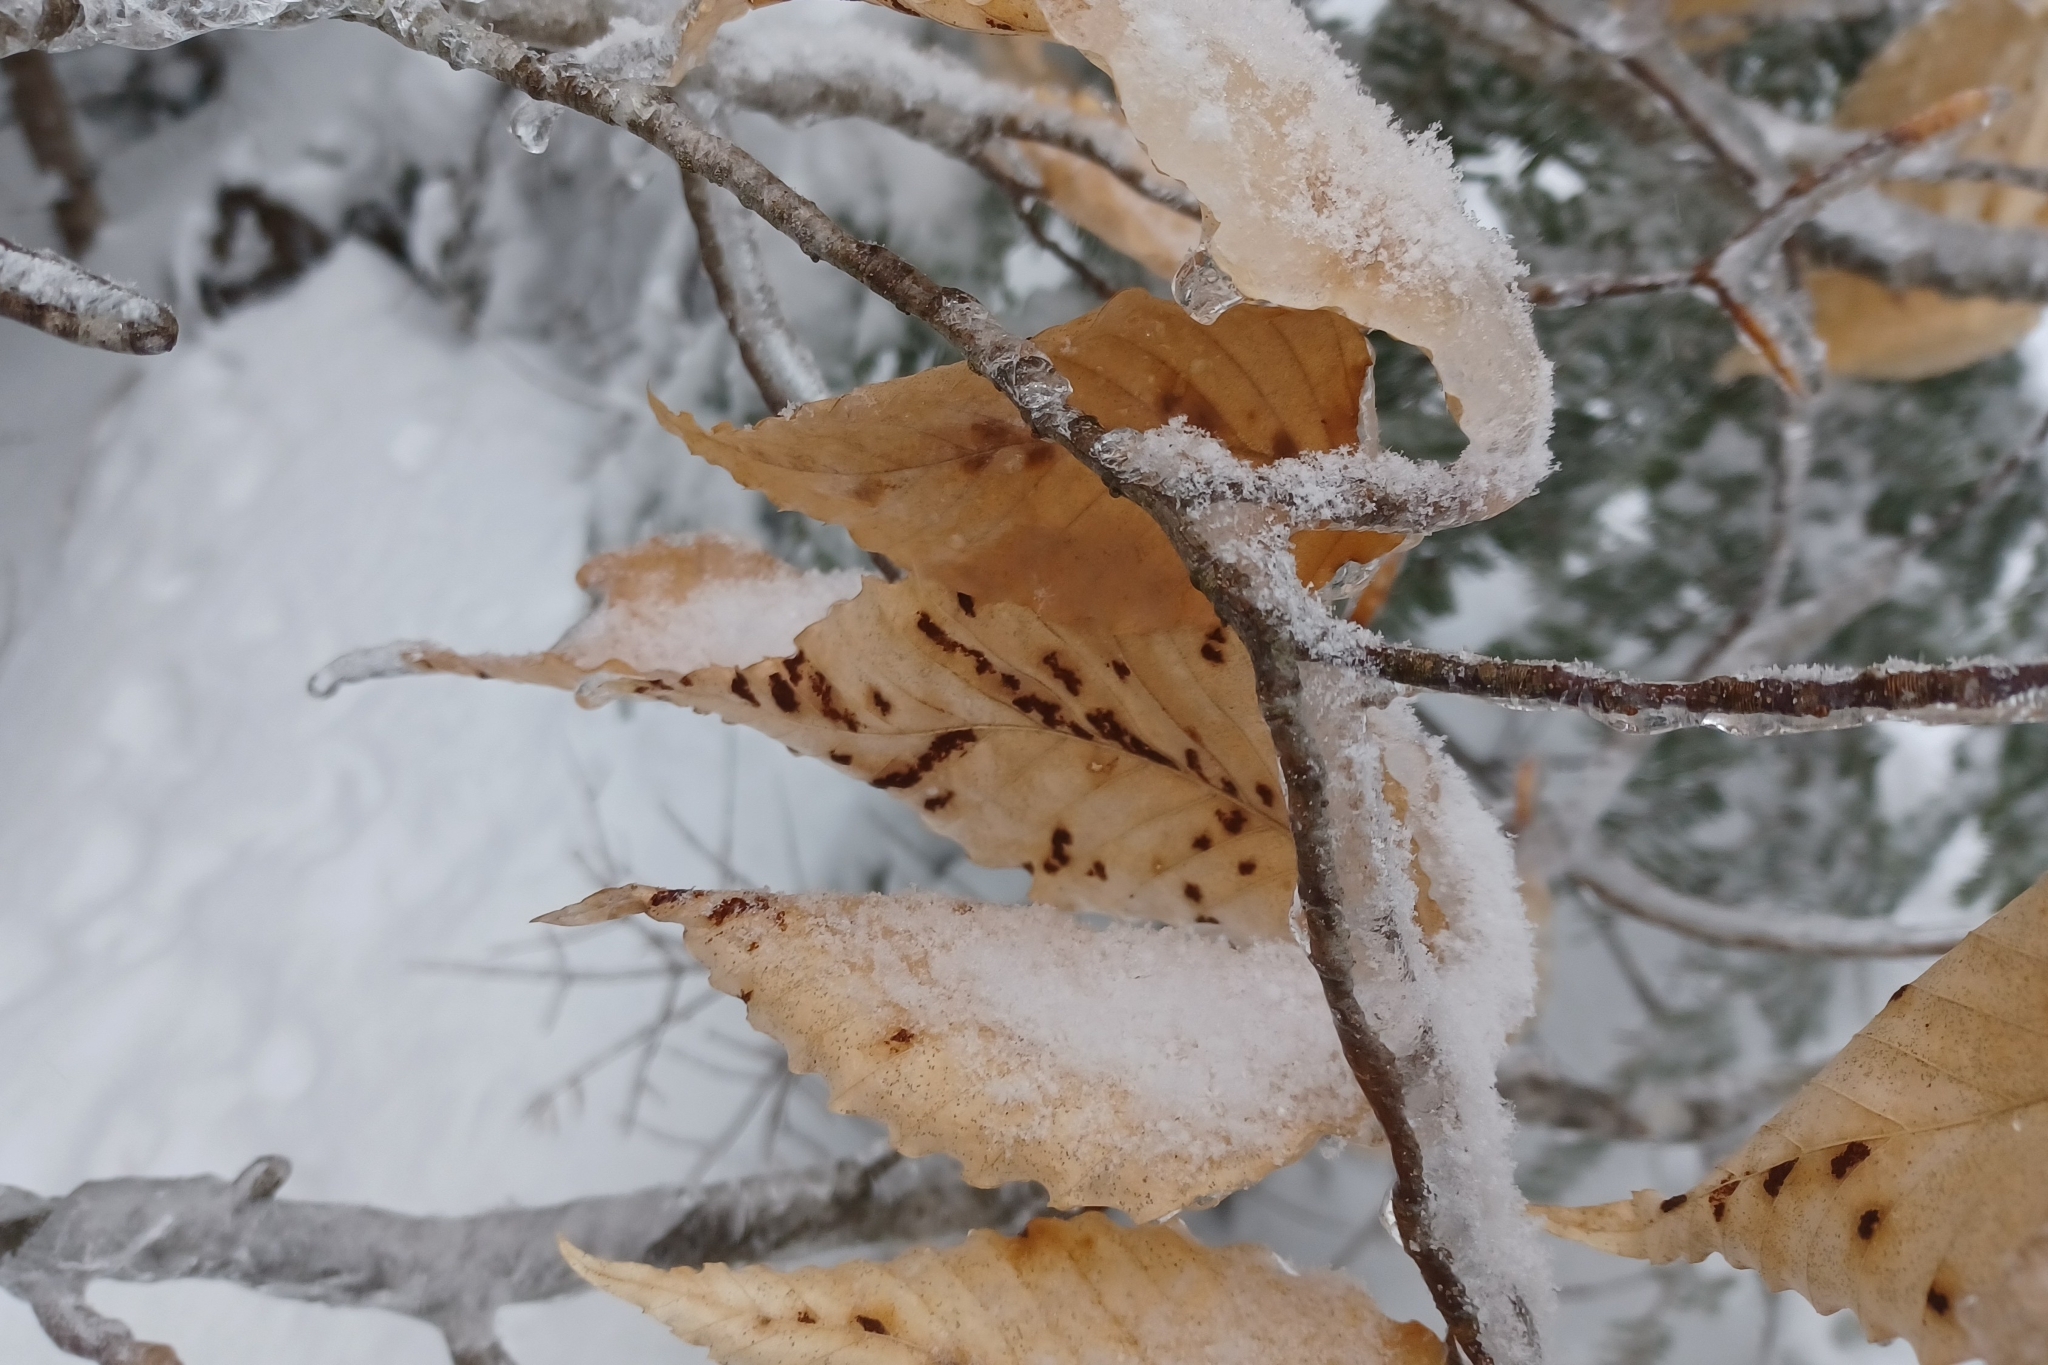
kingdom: Animalia
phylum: Arthropoda
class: Arachnida
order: Trombidiformes
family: Eriophyidae
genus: Acalitus
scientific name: Acalitus
